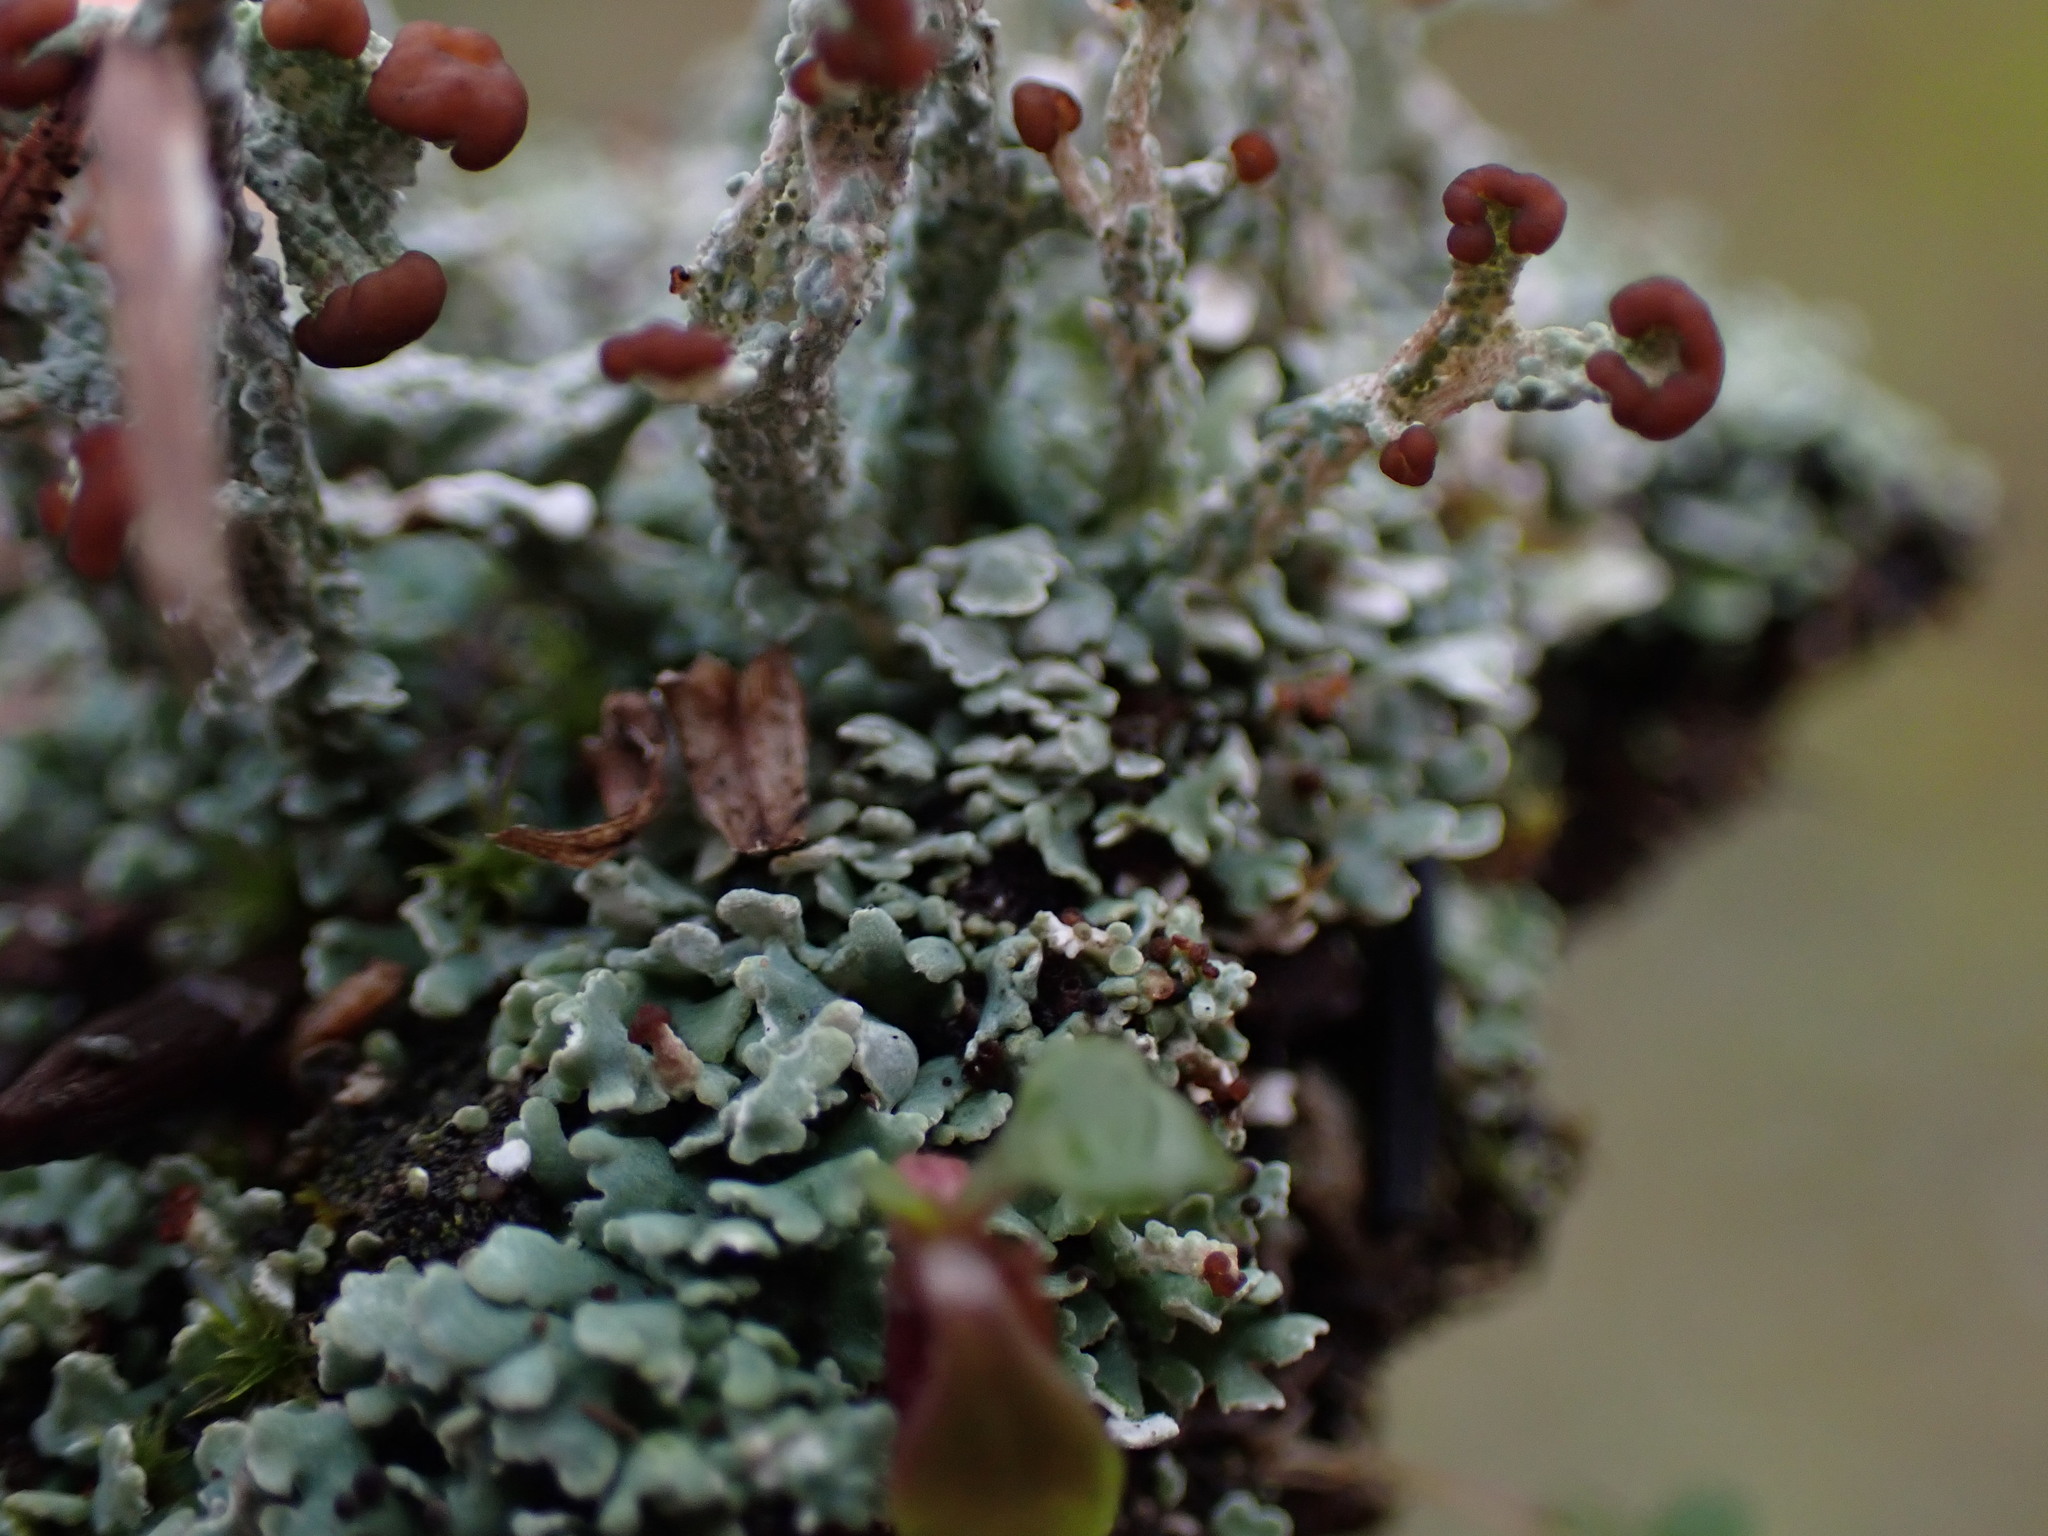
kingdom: Fungi
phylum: Ascomycota
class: Lecanoromycetes
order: Lecanorales
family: Cladoniaceae
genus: Cladonia
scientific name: Cladonia cariosa
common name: Split-peg lichen
